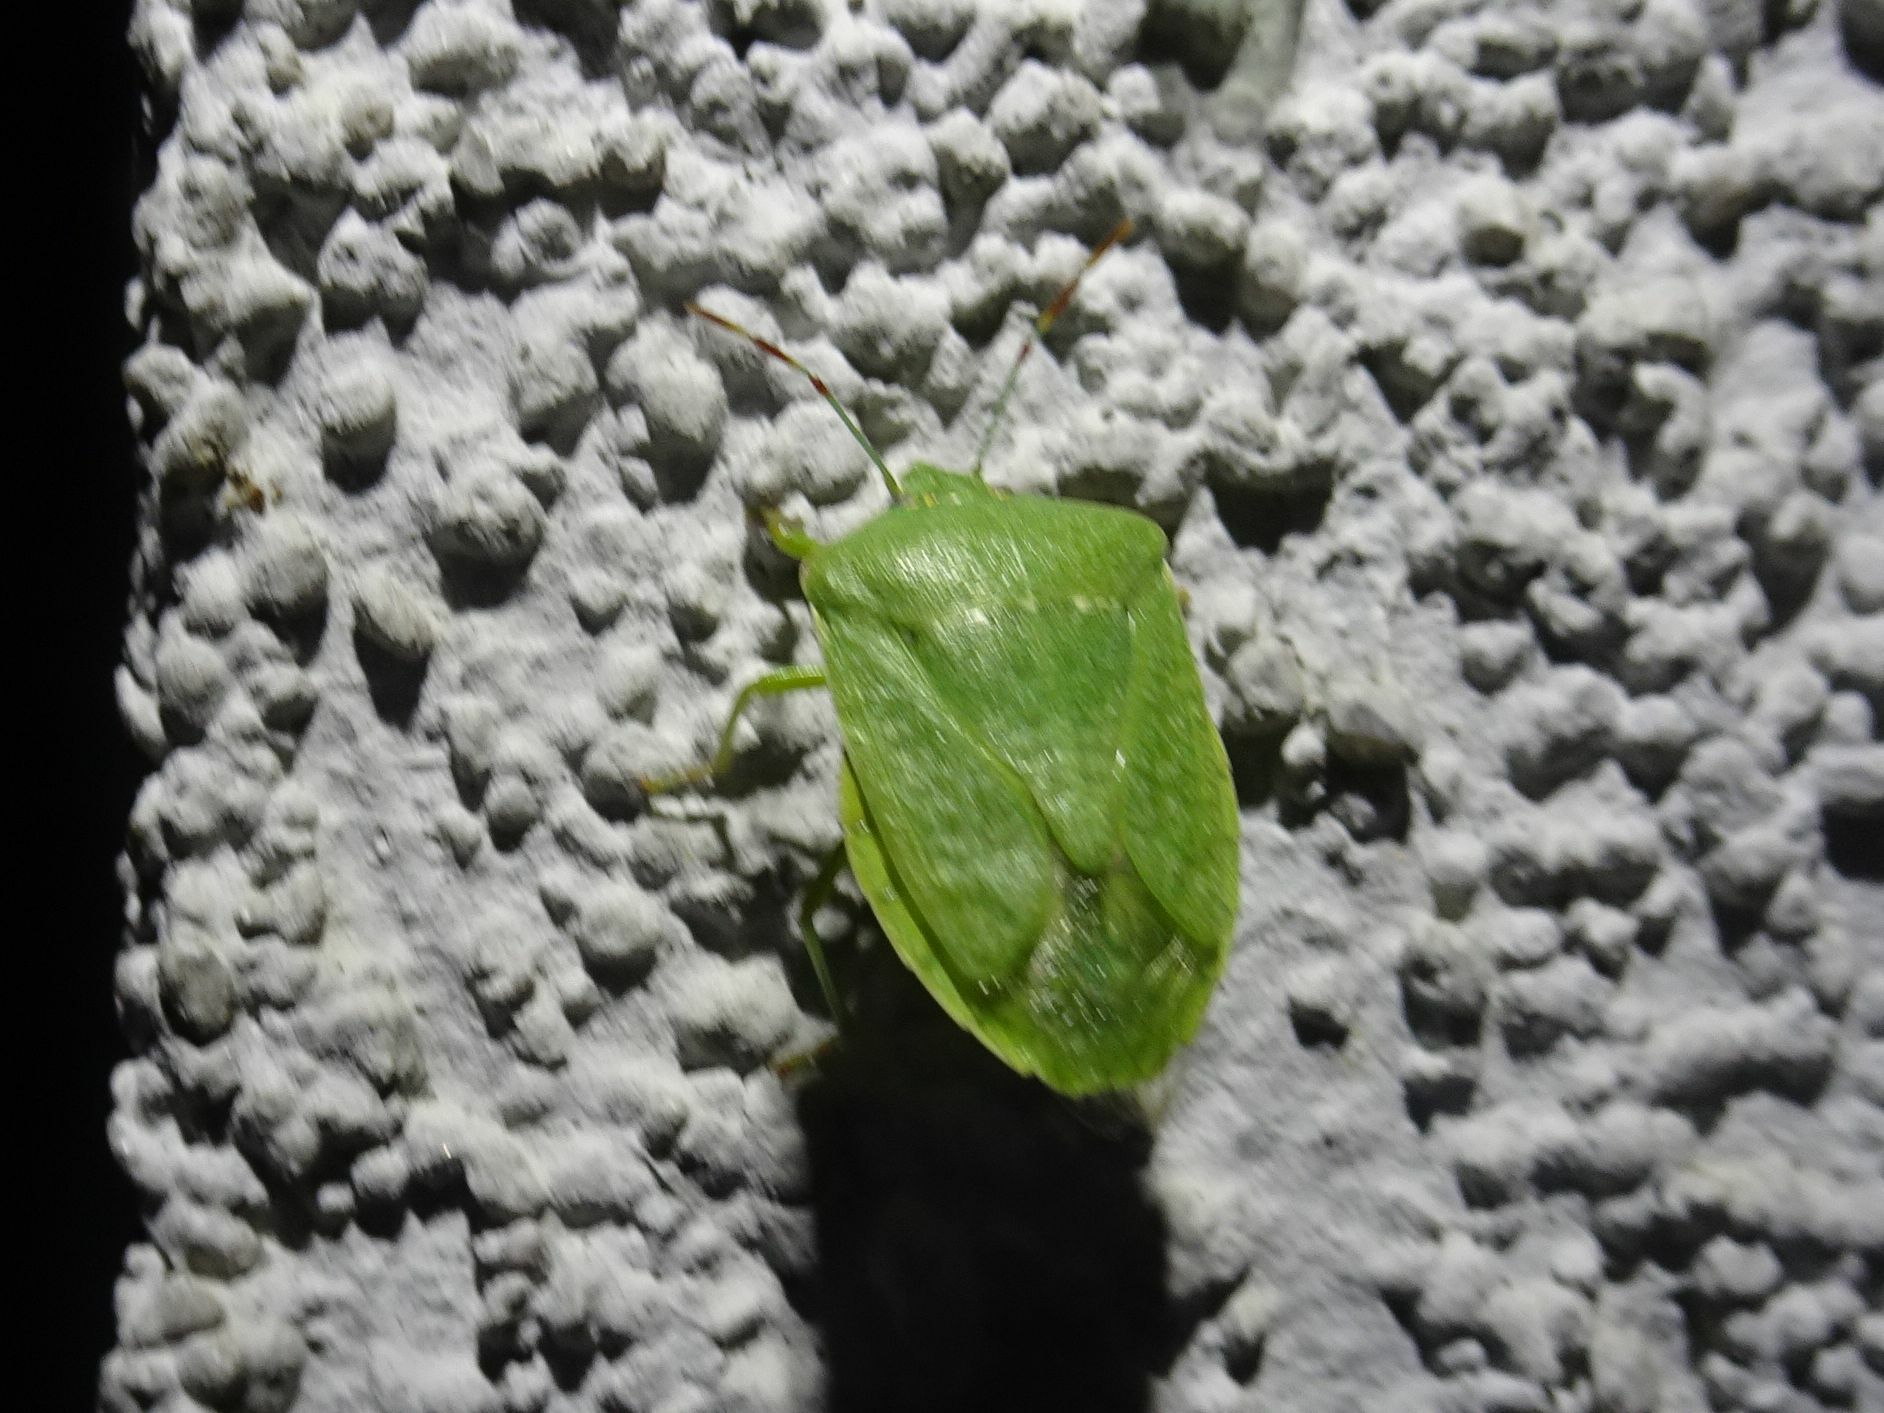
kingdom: Animalia
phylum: Arthropoda
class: Insecta
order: Hemiptera
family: Pentatomidae
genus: Nezara
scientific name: Nezara viridula
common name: Southern green stink bug
